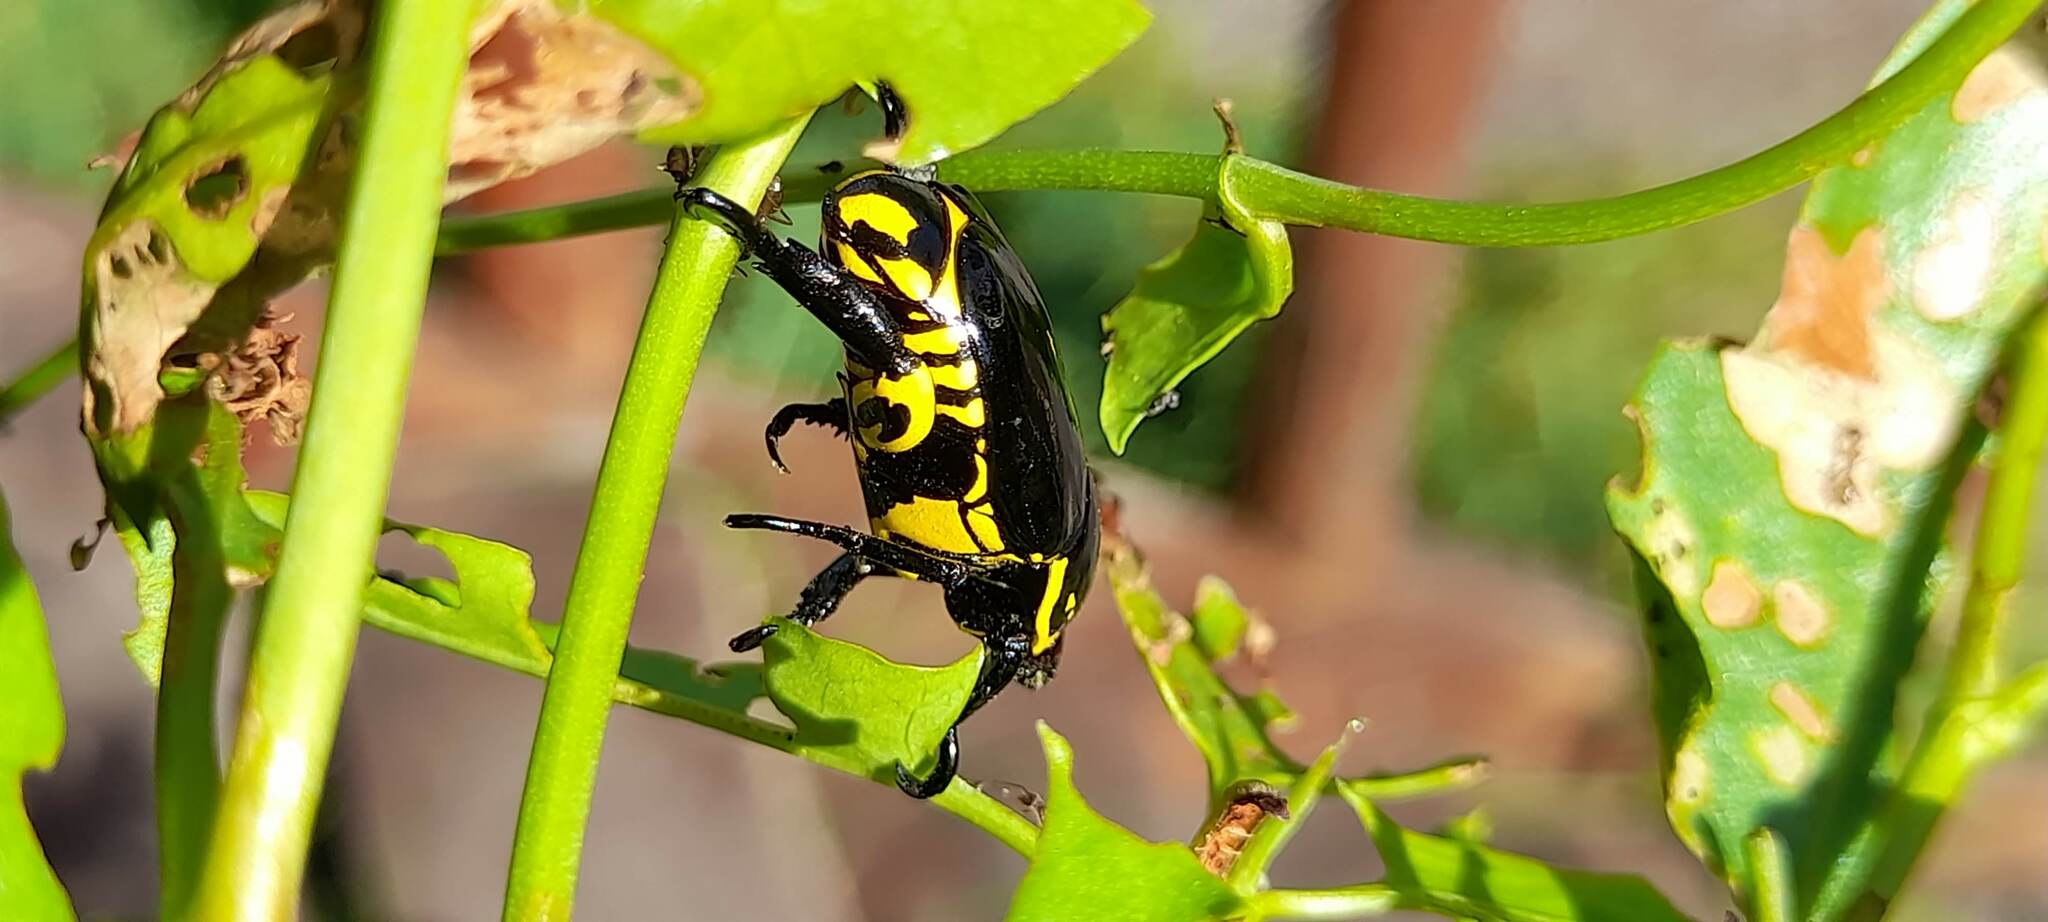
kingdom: Animalia
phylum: Arthropoda
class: Insecta
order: Coleoptera
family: Scarabaeidae
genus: Rutela
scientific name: Rutela lineola
